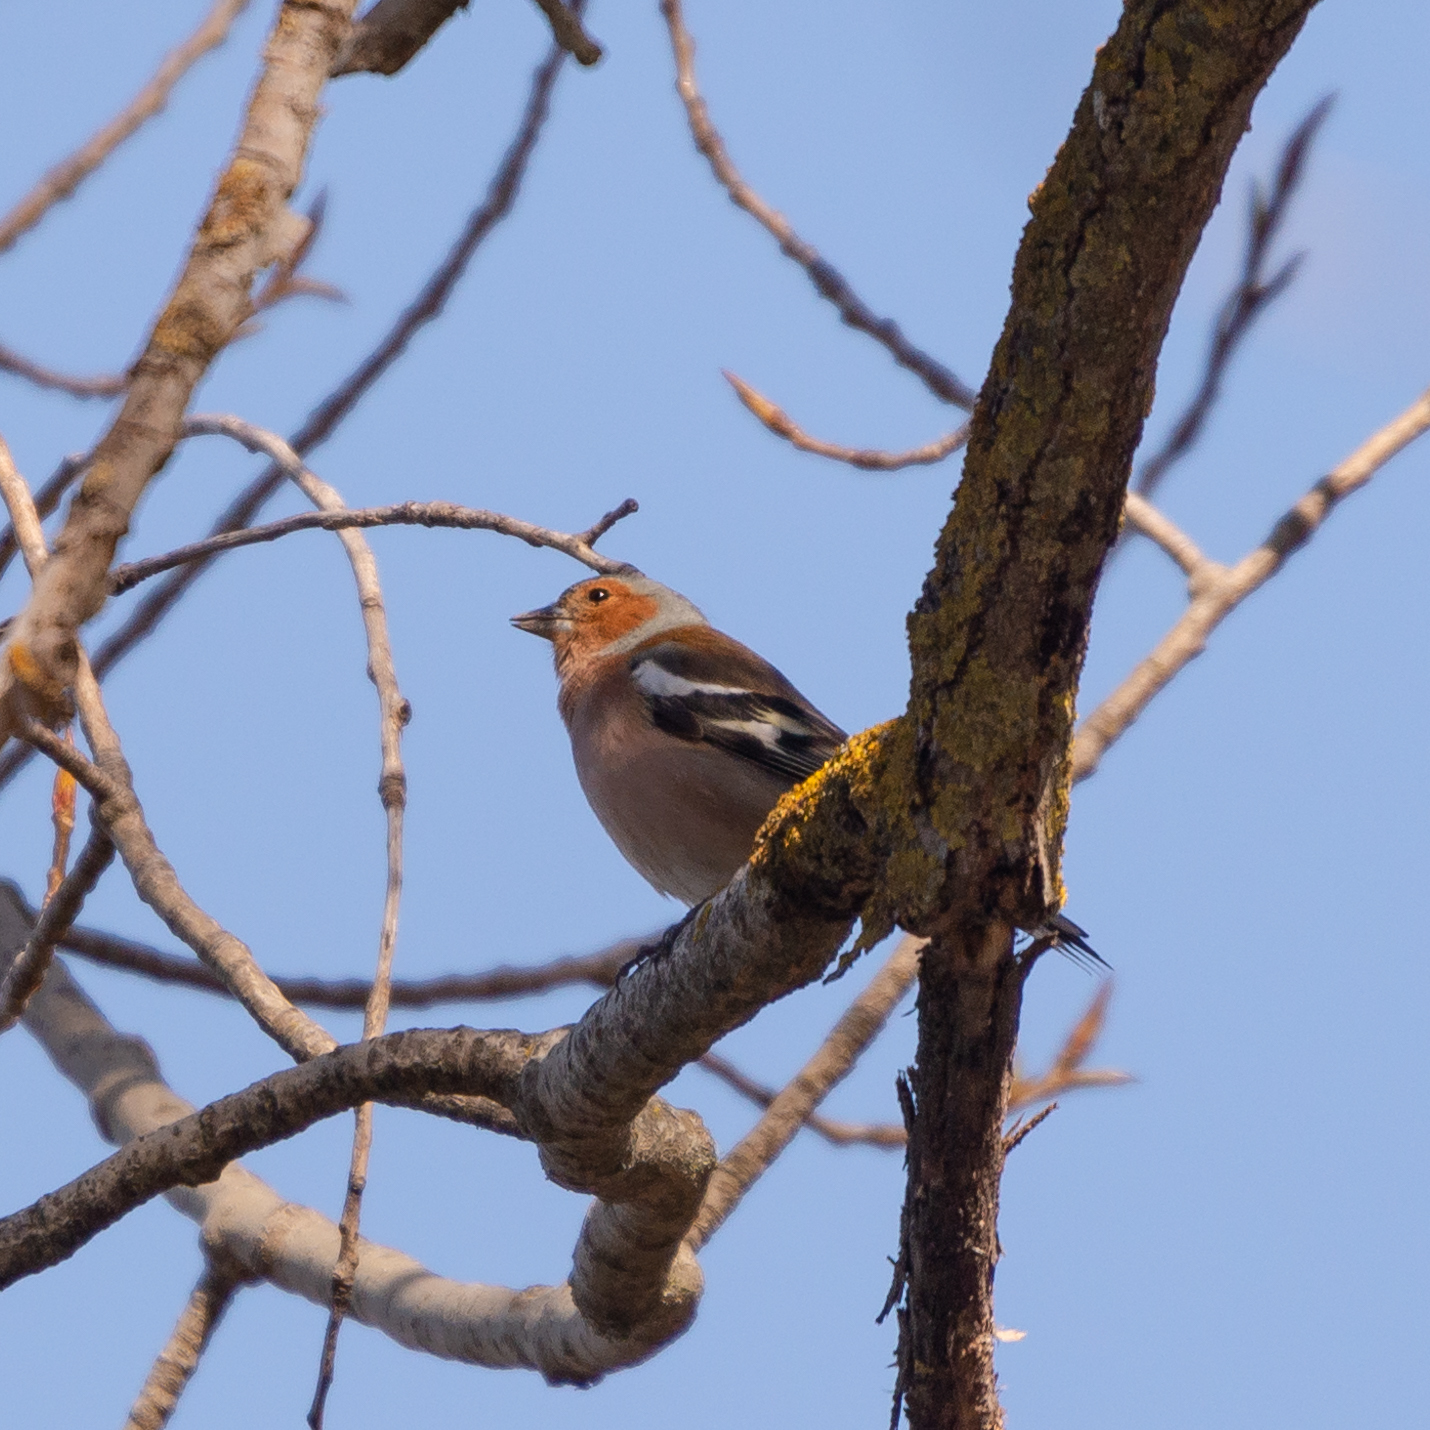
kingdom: Animalia
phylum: Chordata
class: Aves
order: Passeriformes
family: Fringillidae
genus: Fringilla
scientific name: Fringilla coelebs
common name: Common chaffinch
